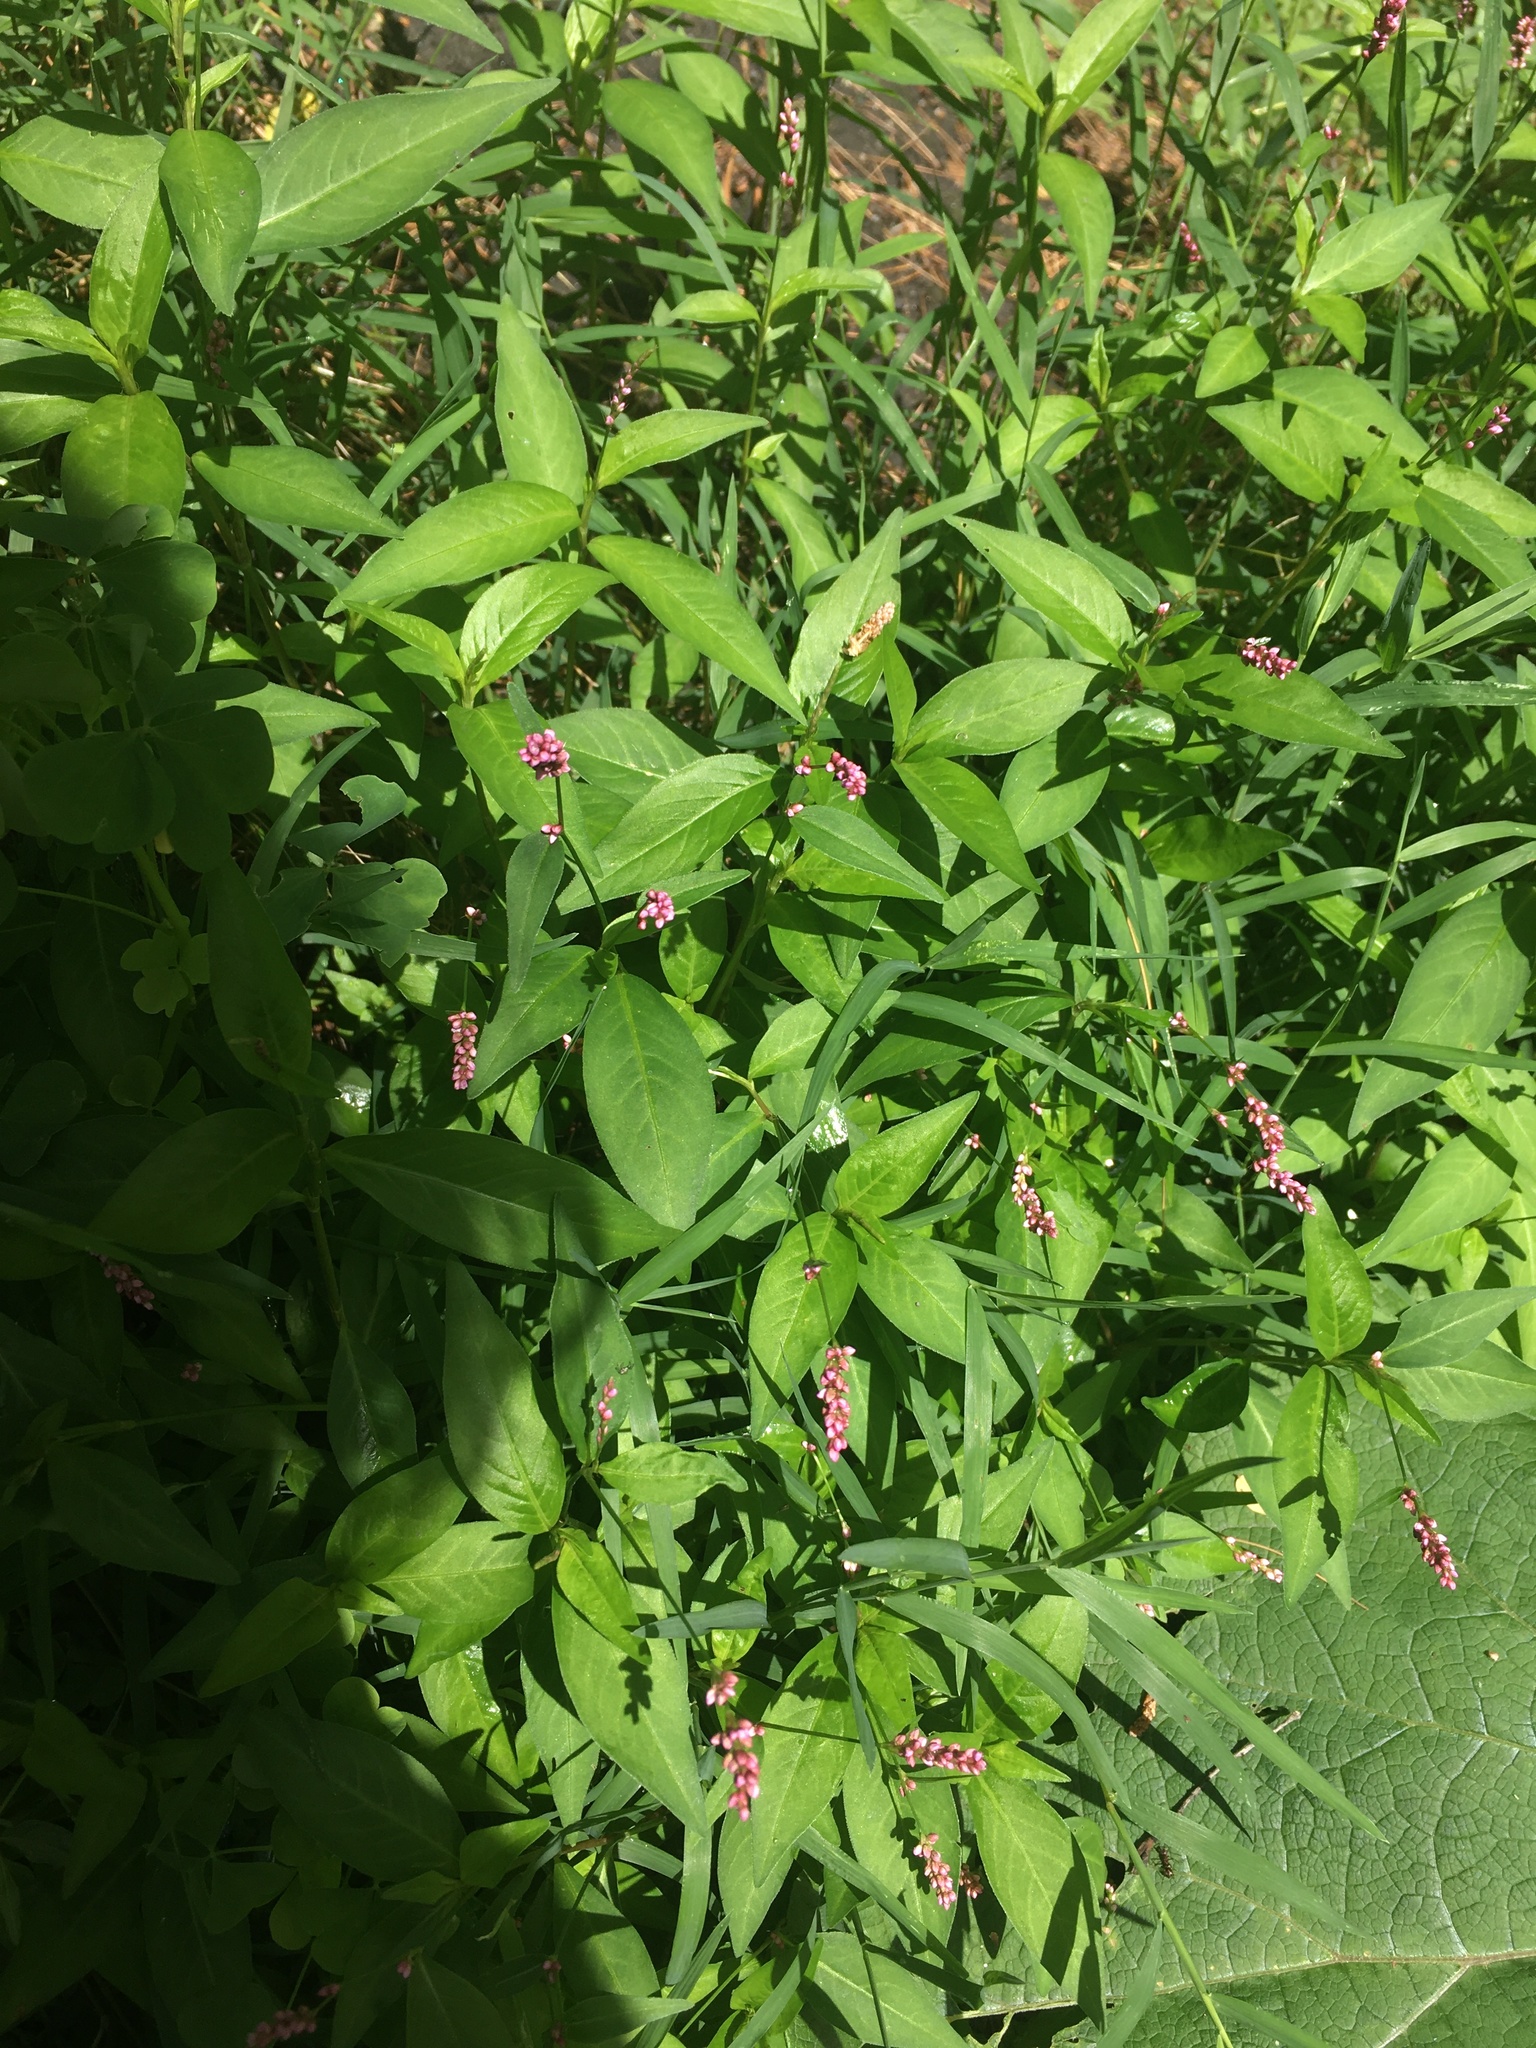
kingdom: Plantae
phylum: Tracheophyta
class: Magnoliopsida
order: Caryophyllales
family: Polygonaceae
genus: Persicaria
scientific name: Persicaria longiseta
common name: Bristly lady's-thumb
